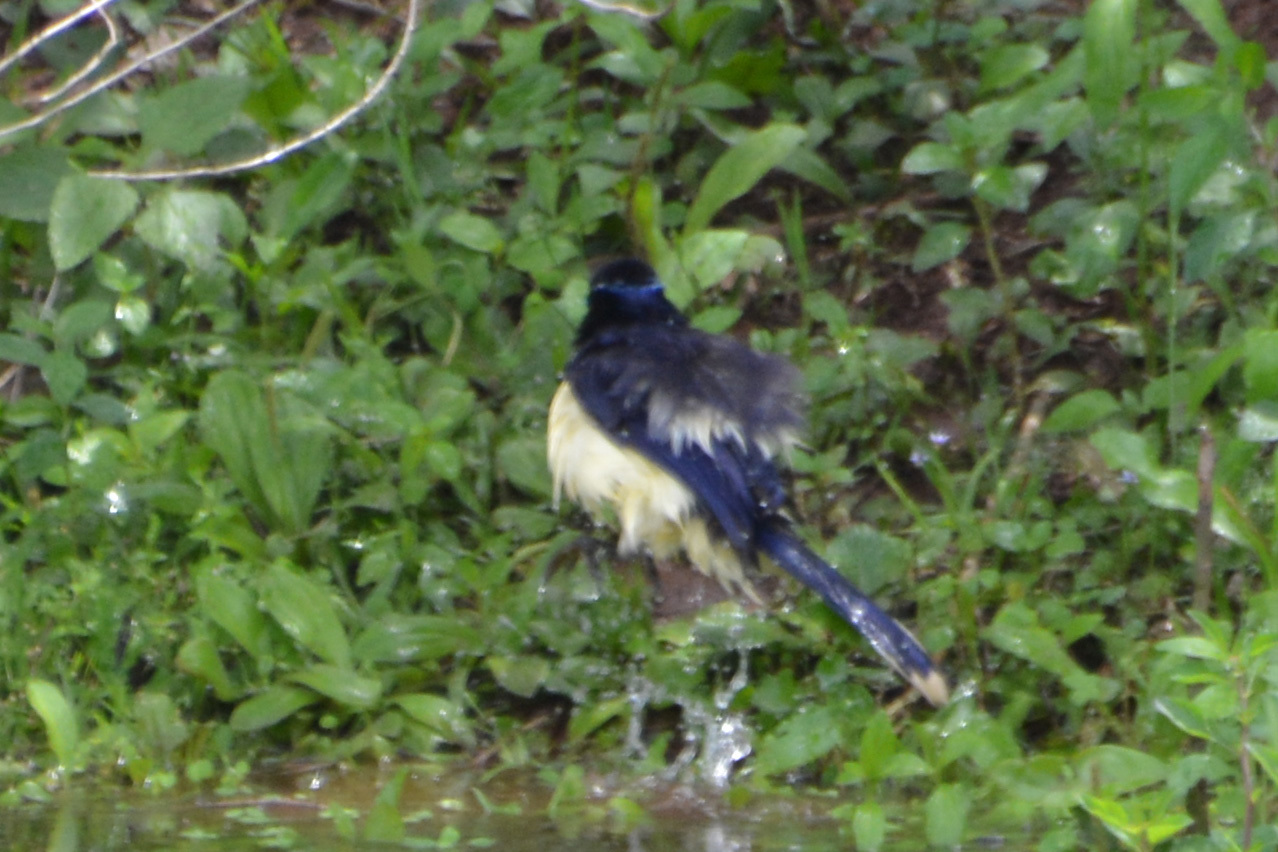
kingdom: Animalia
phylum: Chordata
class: Aves
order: Passeriformes
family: Corvidae
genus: Cyanocorax
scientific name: Cyanocorax chrysops
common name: Plush-crested jay
